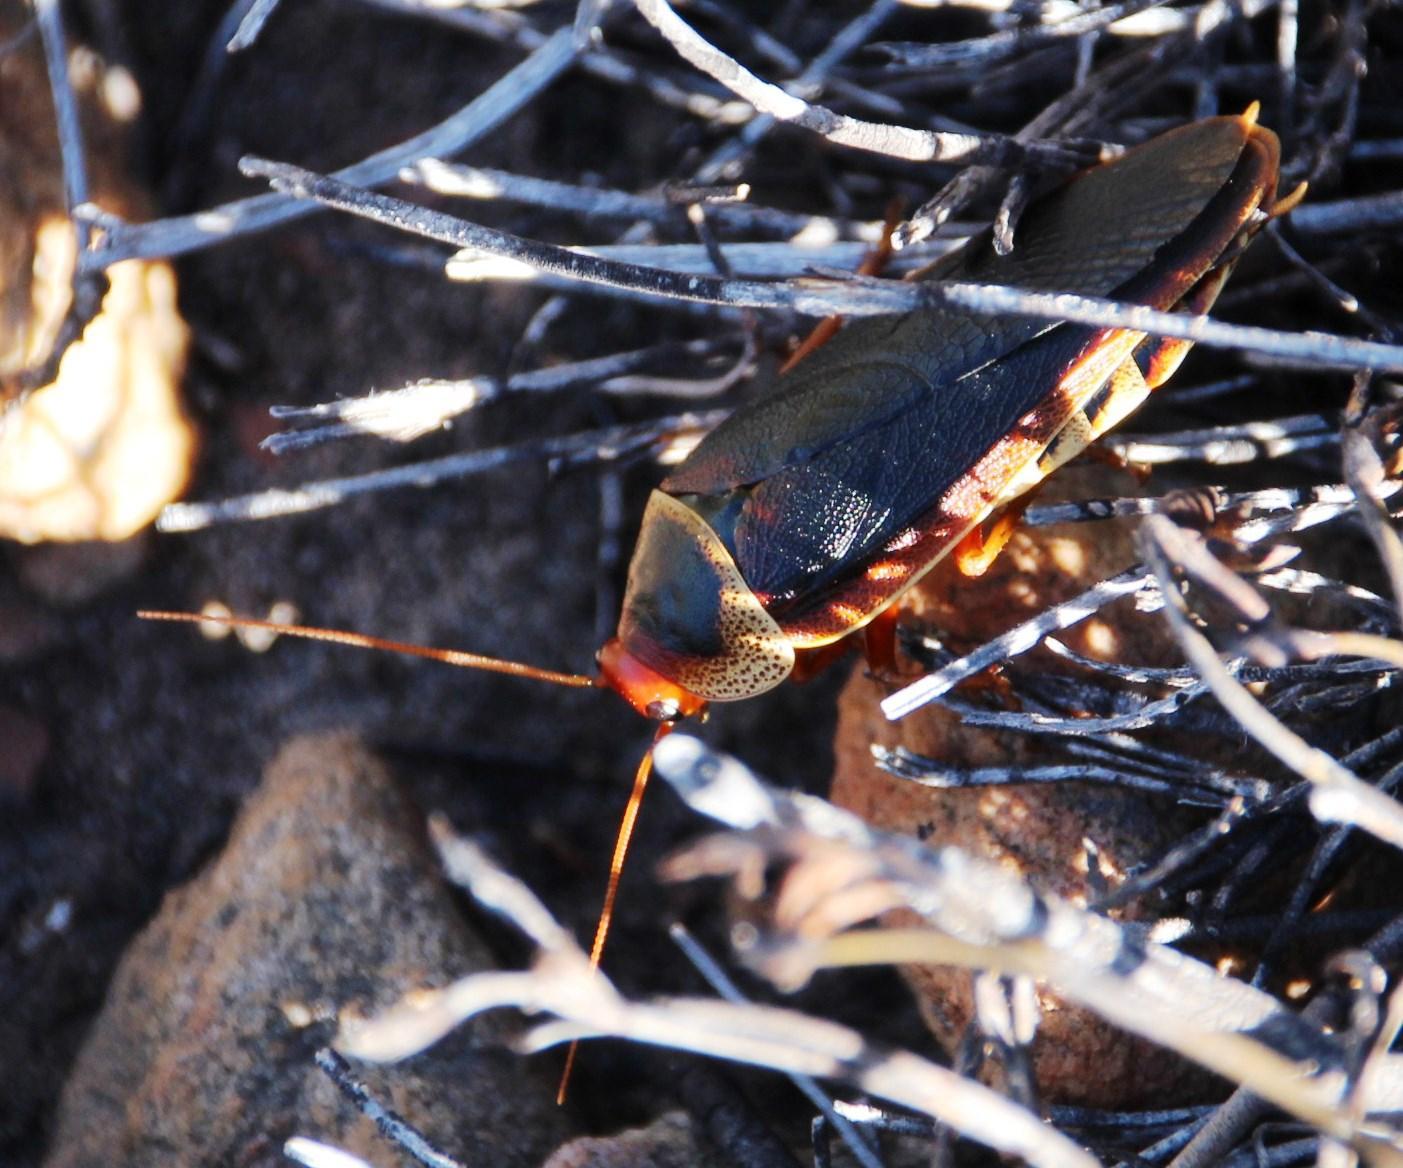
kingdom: Animalia
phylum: Arthropoda
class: Insecta
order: Blattodea
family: Blaberidae
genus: Aptera
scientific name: Aptera fusca
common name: Cape mountain cockroach
